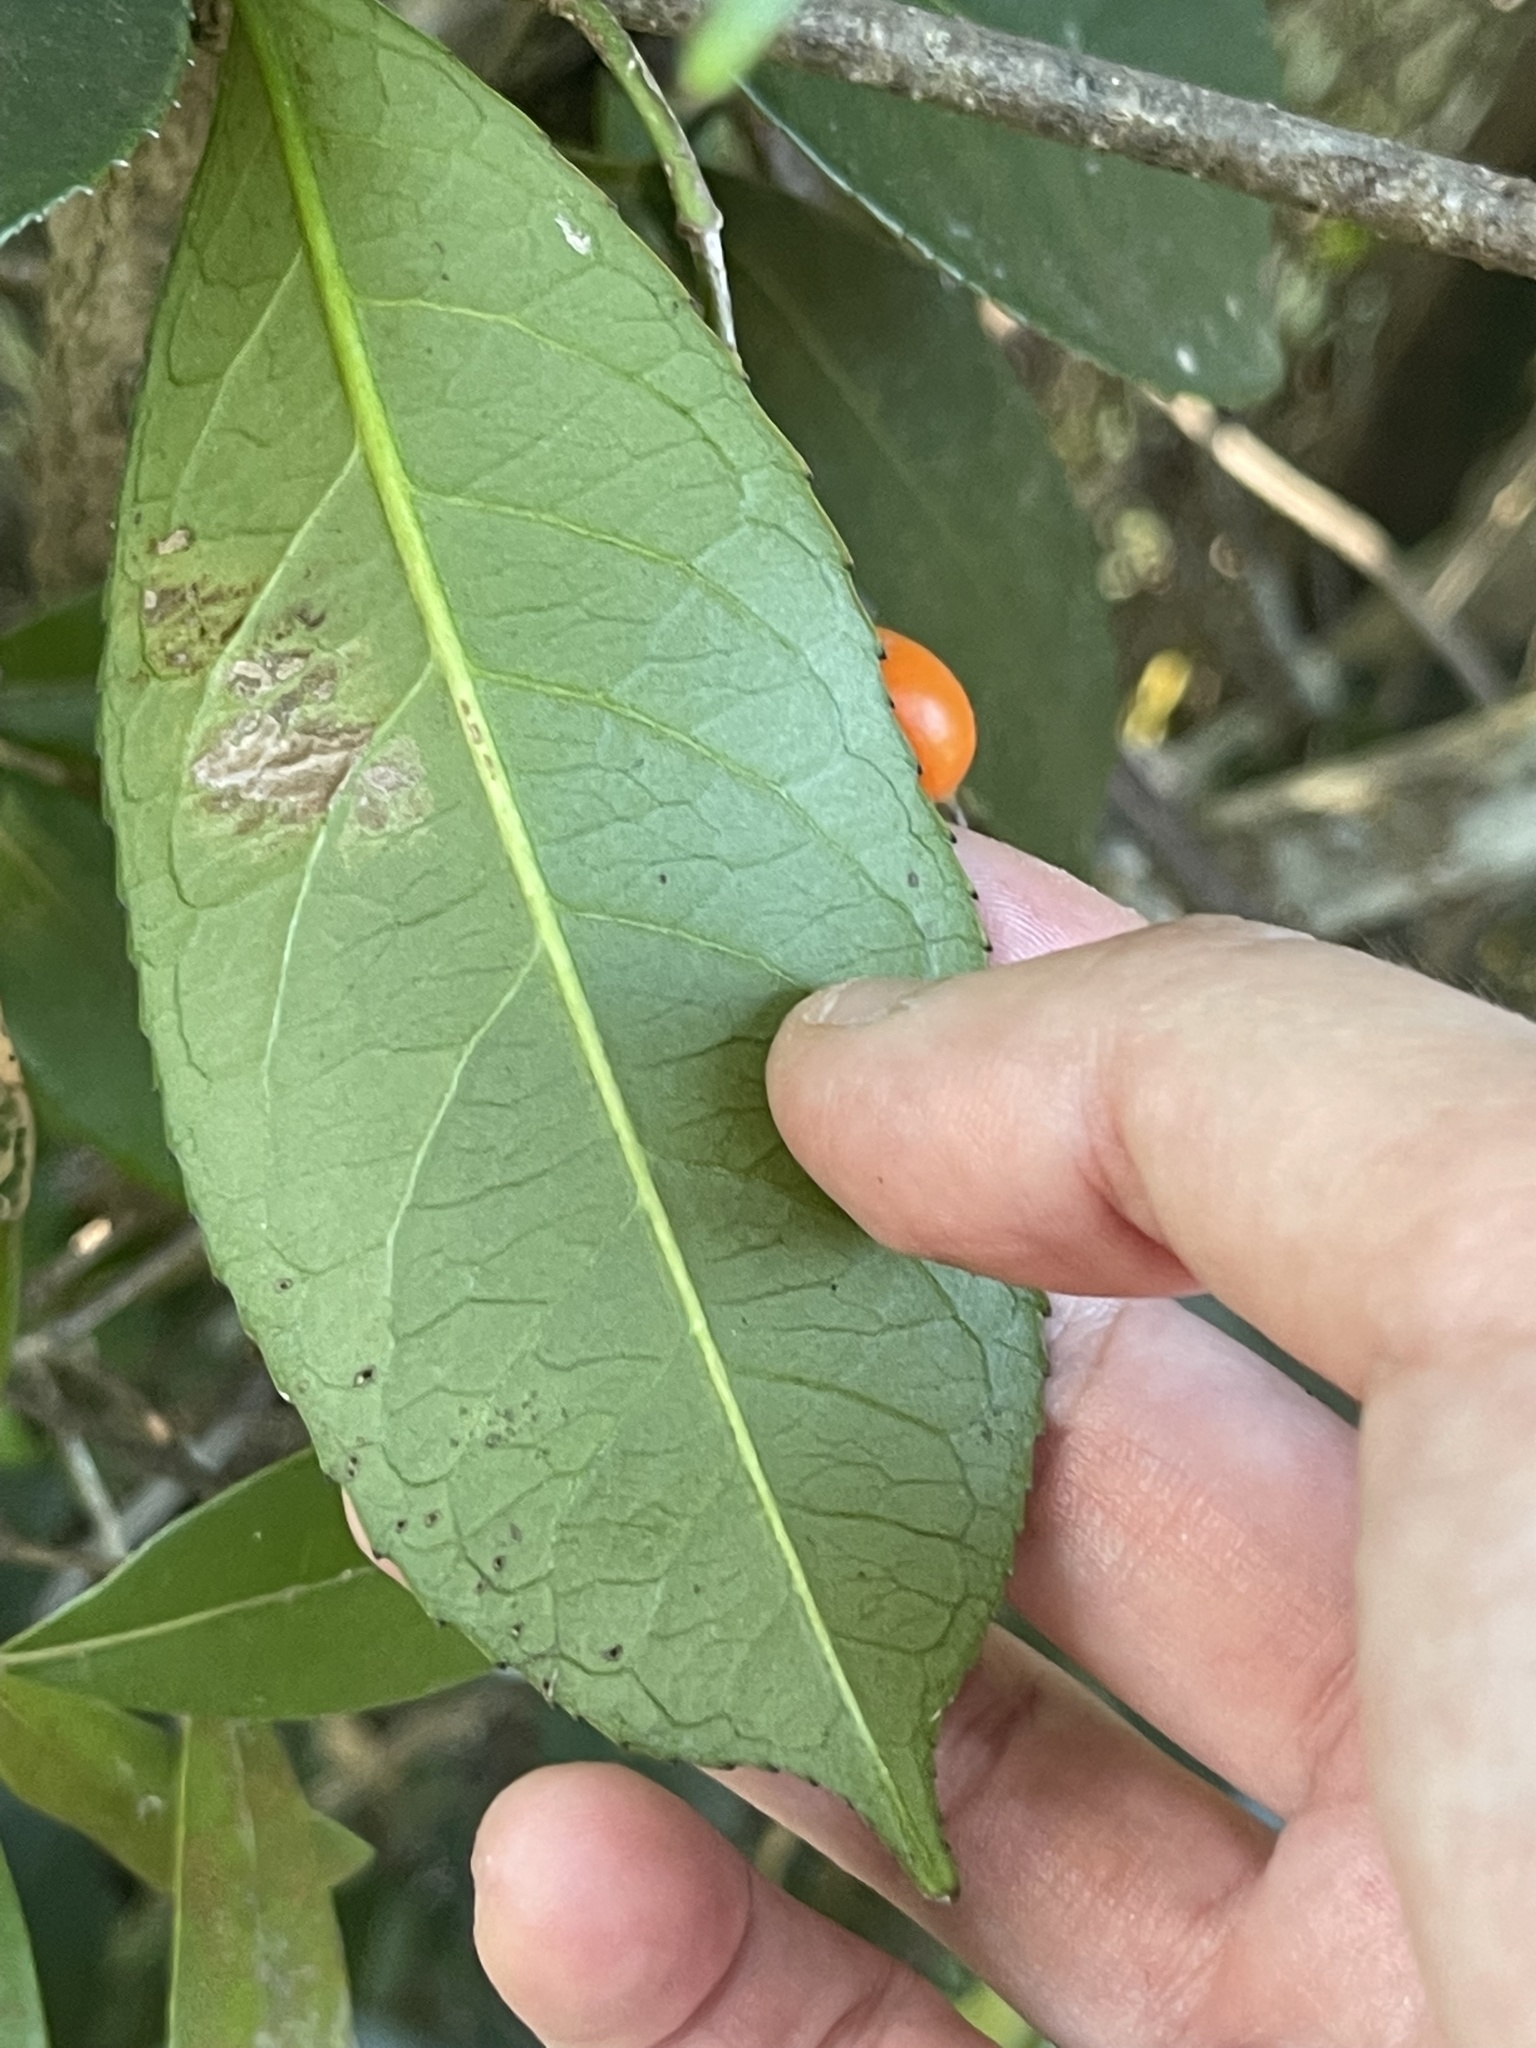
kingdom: Plantae
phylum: Tracheophyta
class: Magnoliopsida
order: Crossosomatales
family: Staphyleaceae
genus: Turpinia
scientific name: Turpinia arguta
